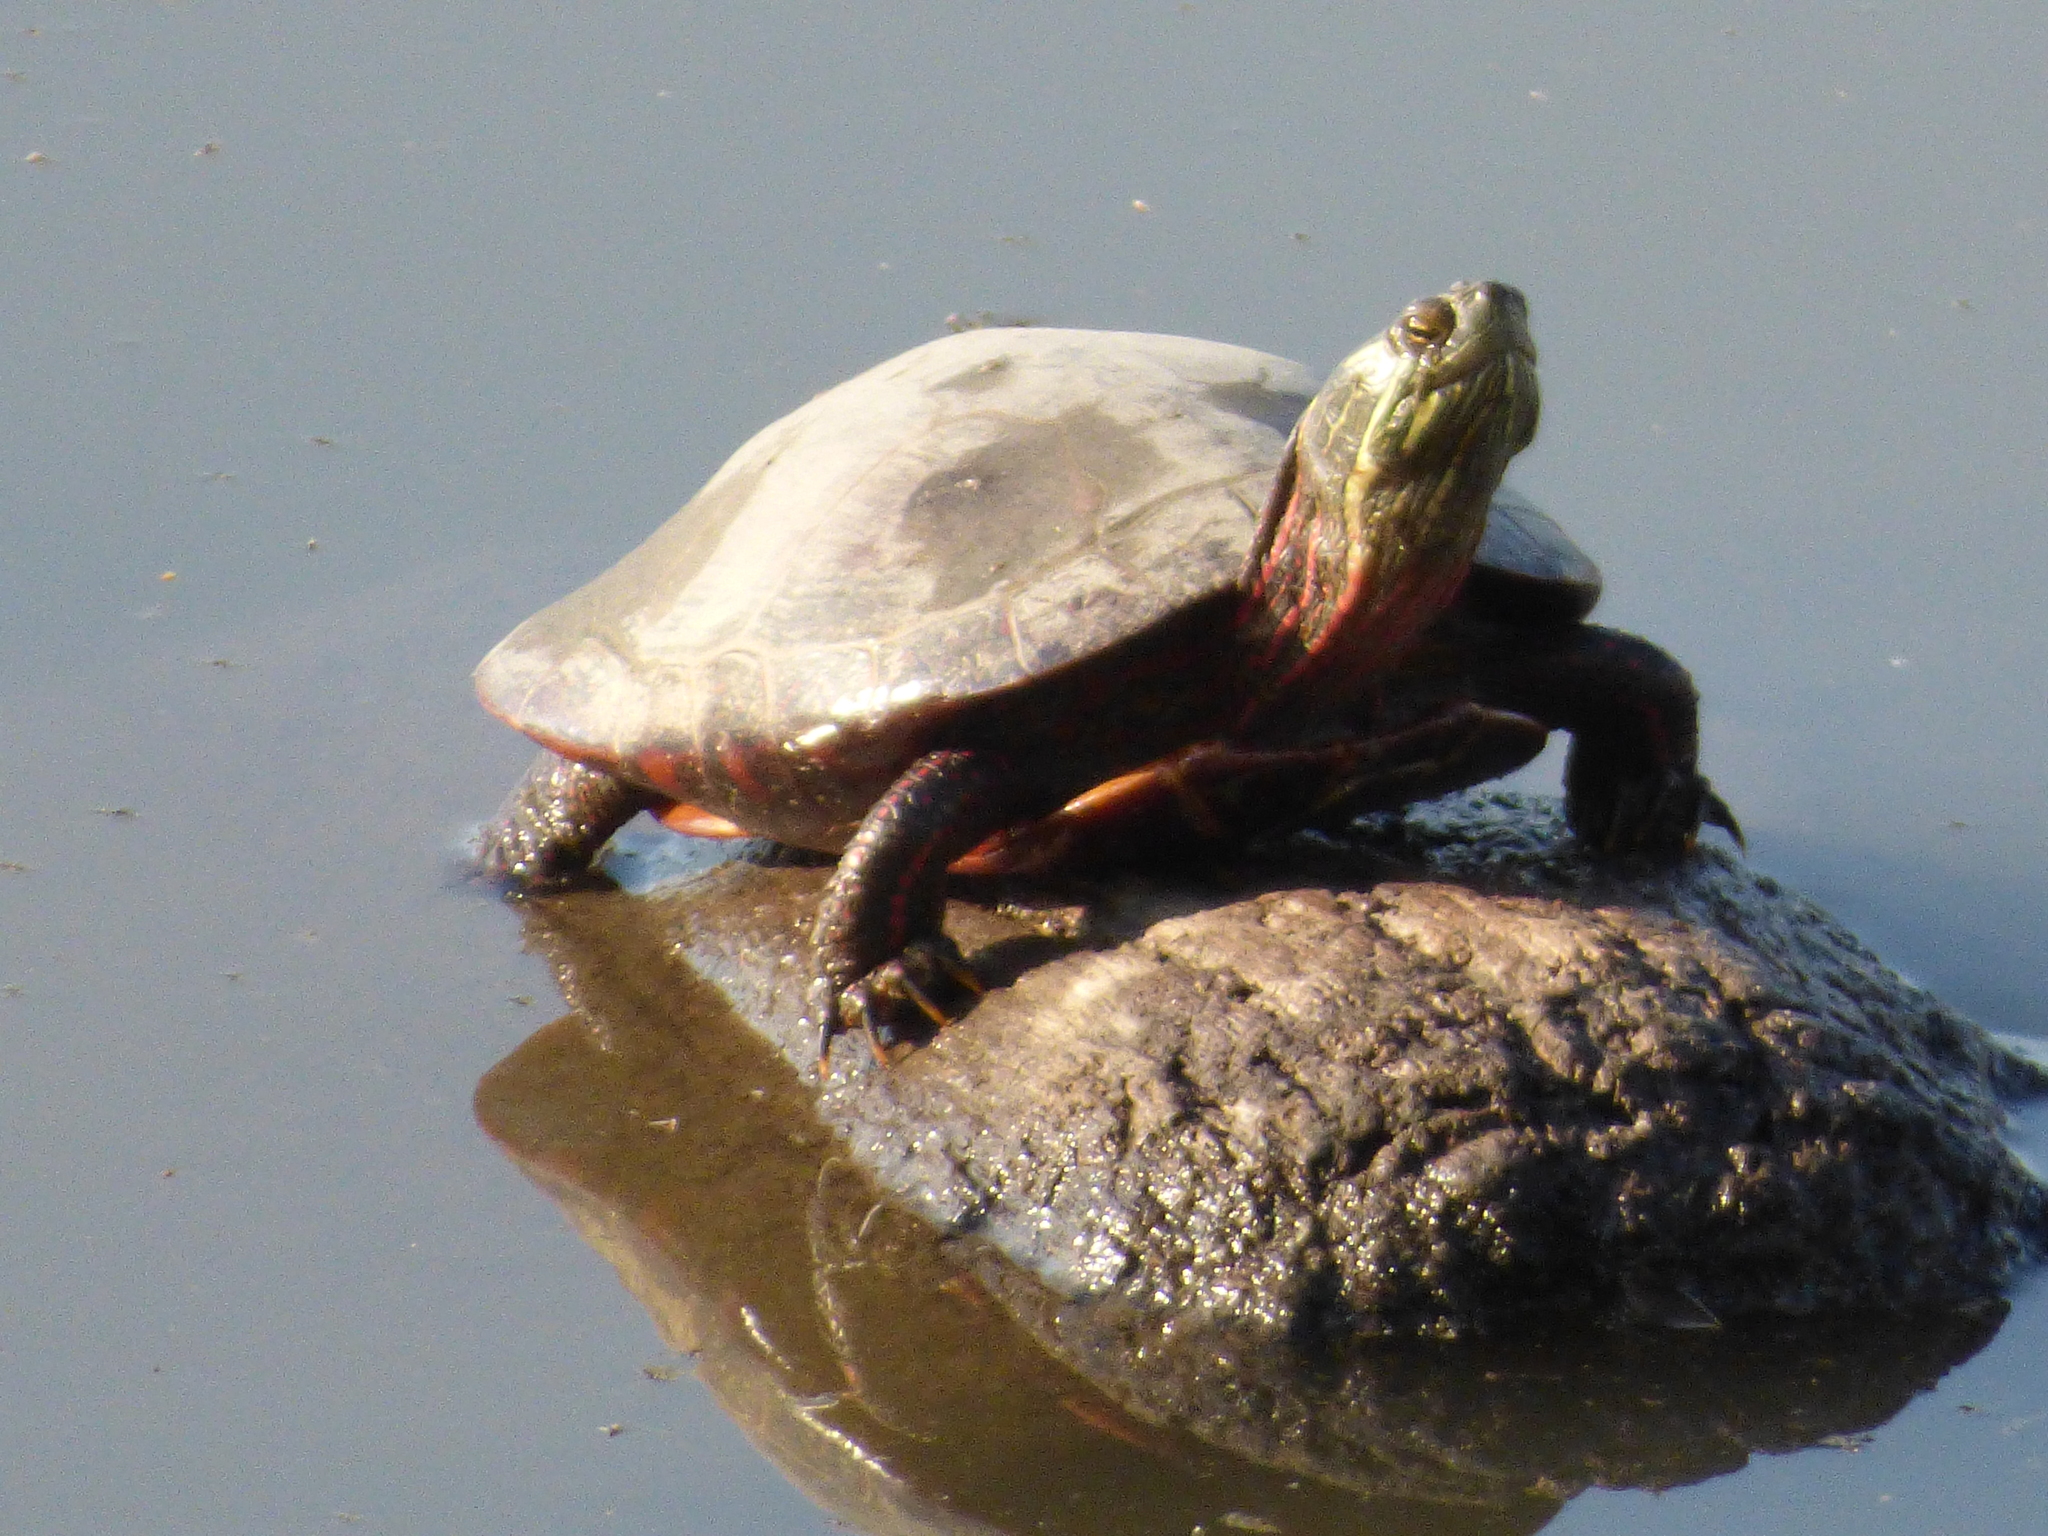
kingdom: Animalia
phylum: Chordata
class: Testudines
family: Emydidae
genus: Chrysemys
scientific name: Chrysemys picta
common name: Painted turtle
